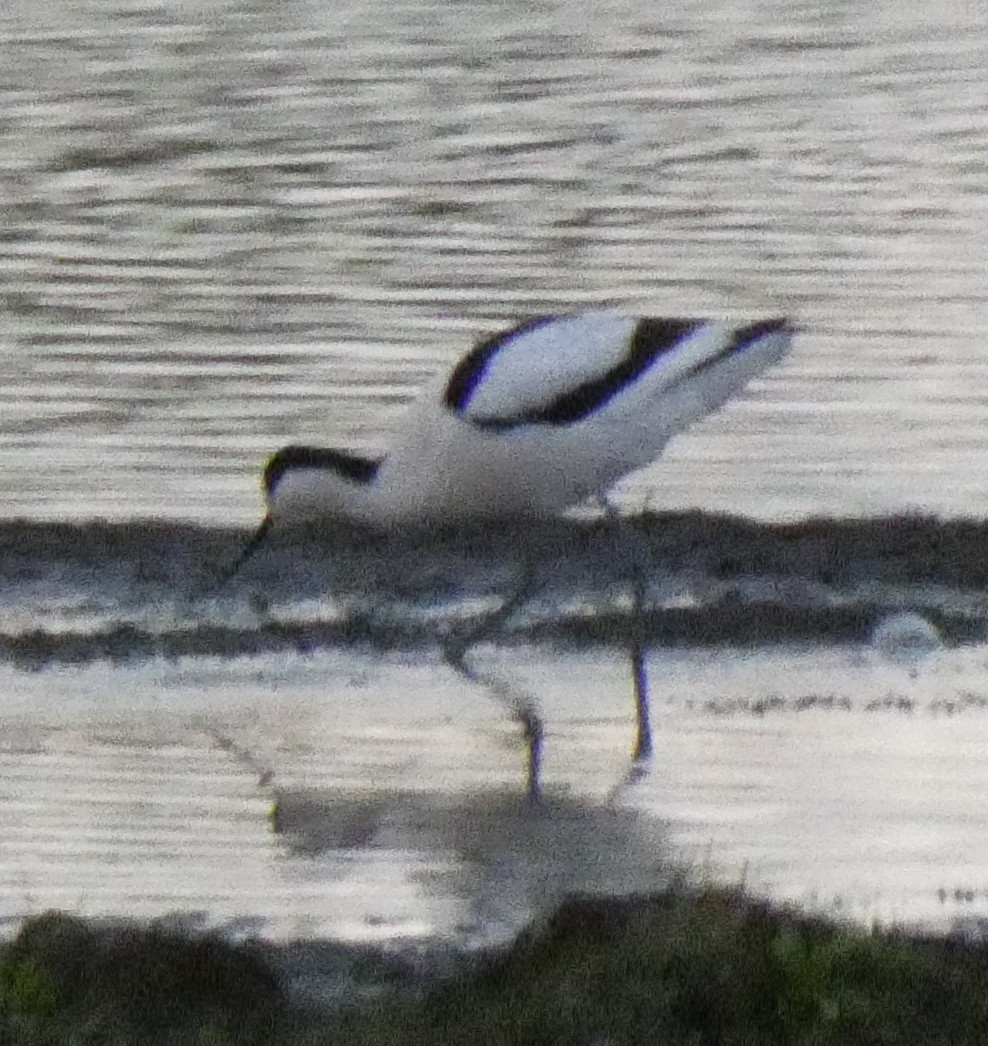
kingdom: Animalia
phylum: Chordata
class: Aves
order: Charadriiformes
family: Recurvirostridae
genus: Recurvirostra
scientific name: Recurvirostra avosetta
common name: Pied avocet
